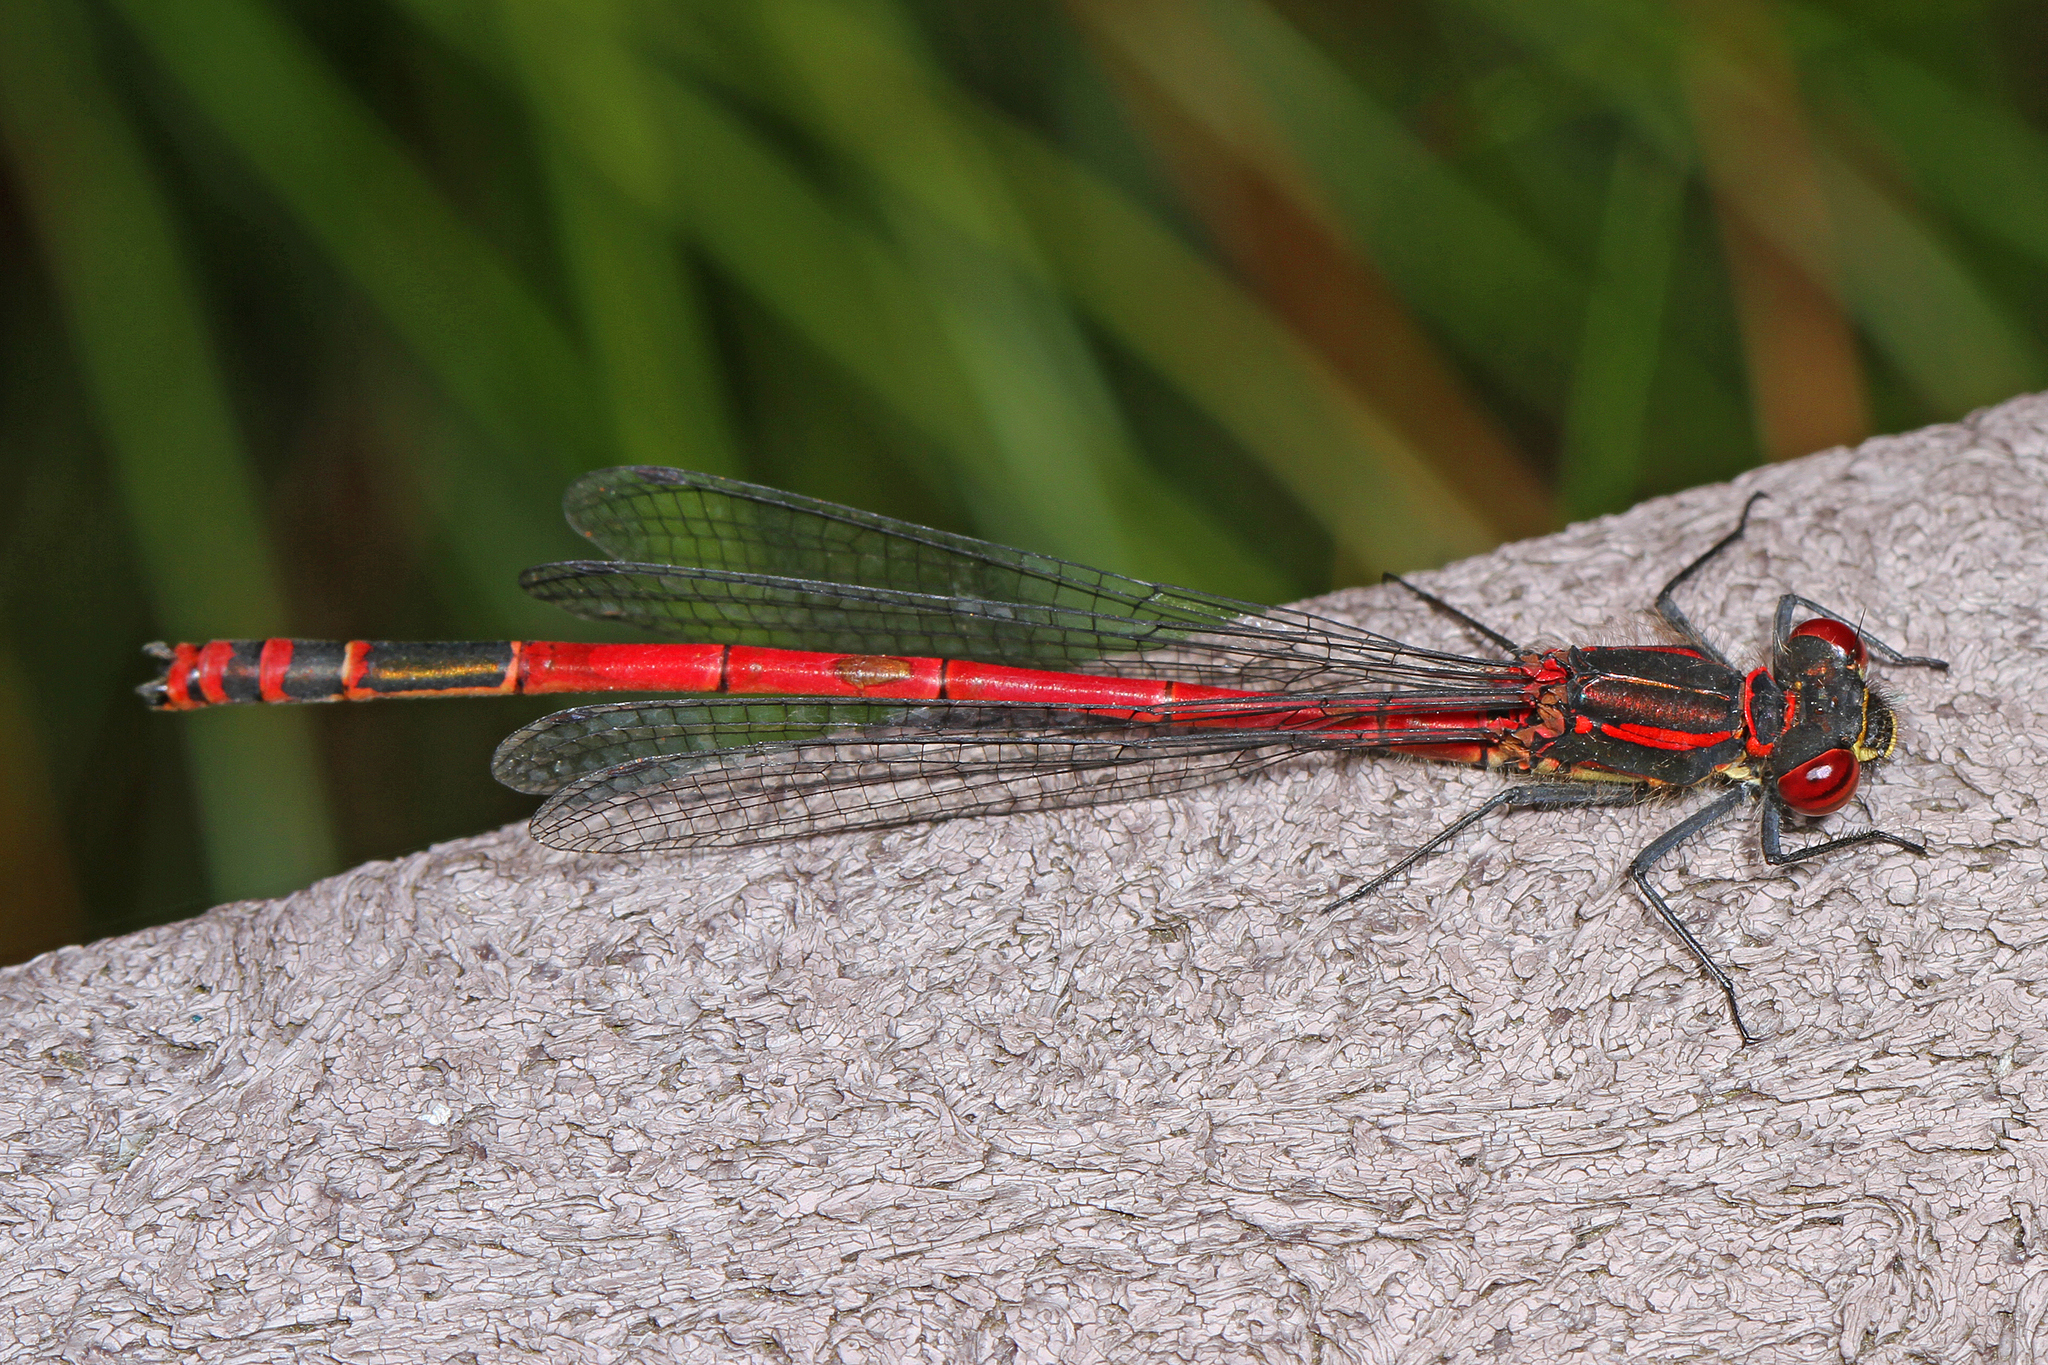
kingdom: Animalia
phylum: Arthropoda
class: Insecta
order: Odonata
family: Coenagrionidae
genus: Pyrrhosoma
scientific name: Pyrrhosoma nymphula
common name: Large red damsel
